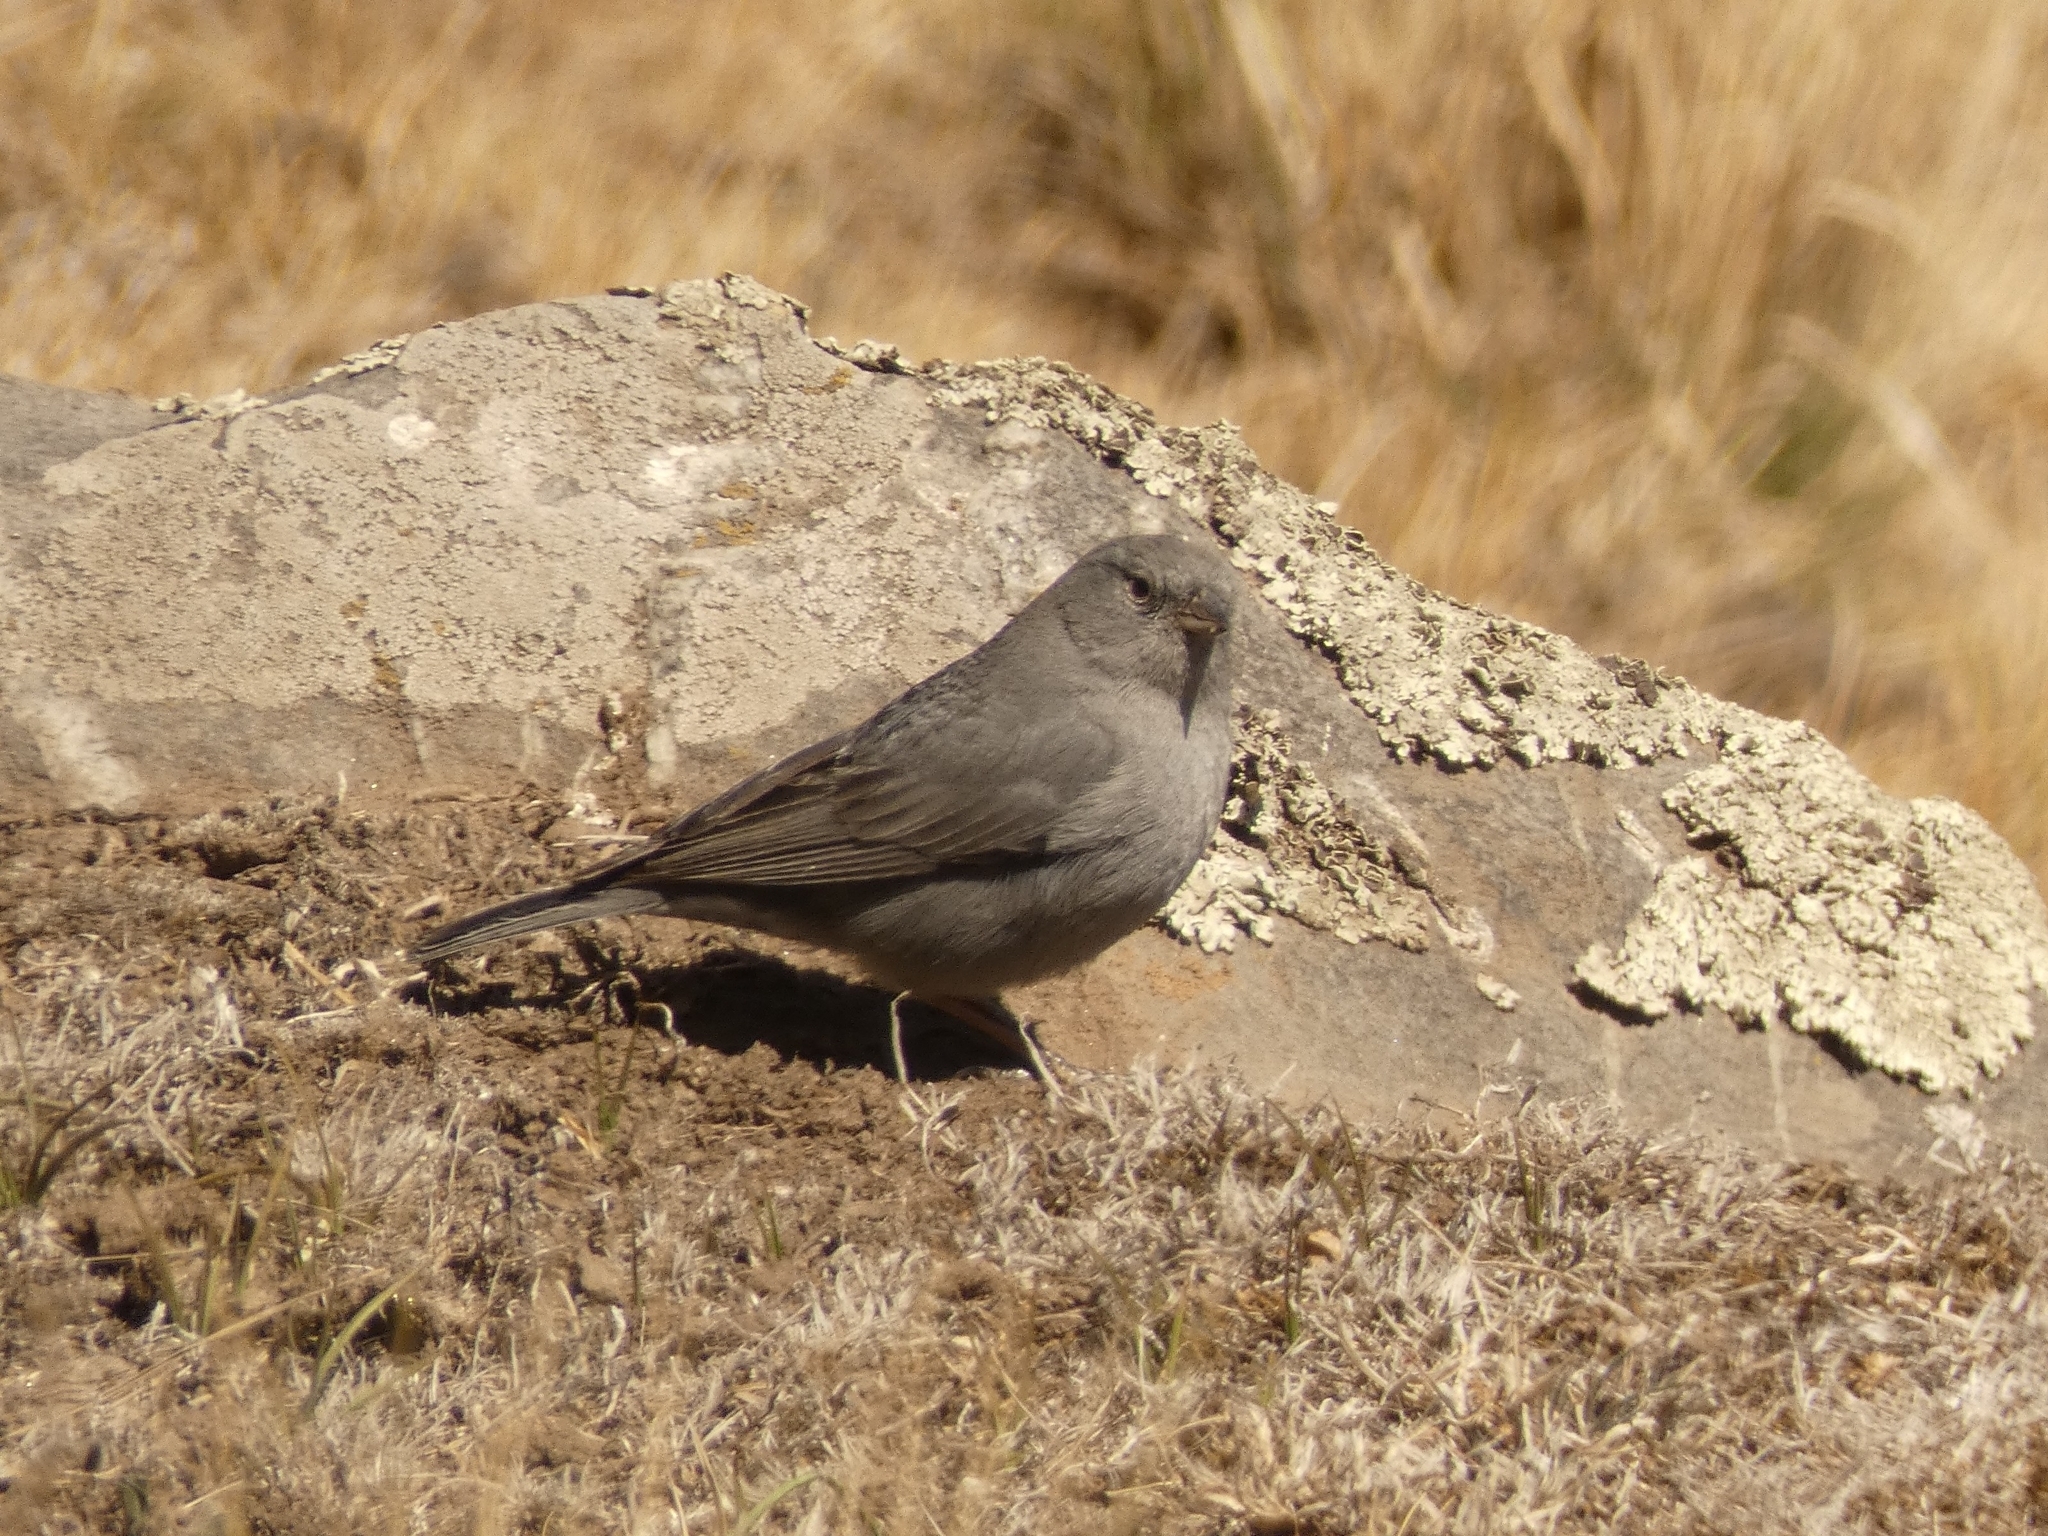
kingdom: Animalia
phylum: Chordata
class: Aves
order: Passeriformes
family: Thraupidae
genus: Geospizopsis
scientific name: Geospizopsis unicolor
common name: Plumbeous sierra-finch
